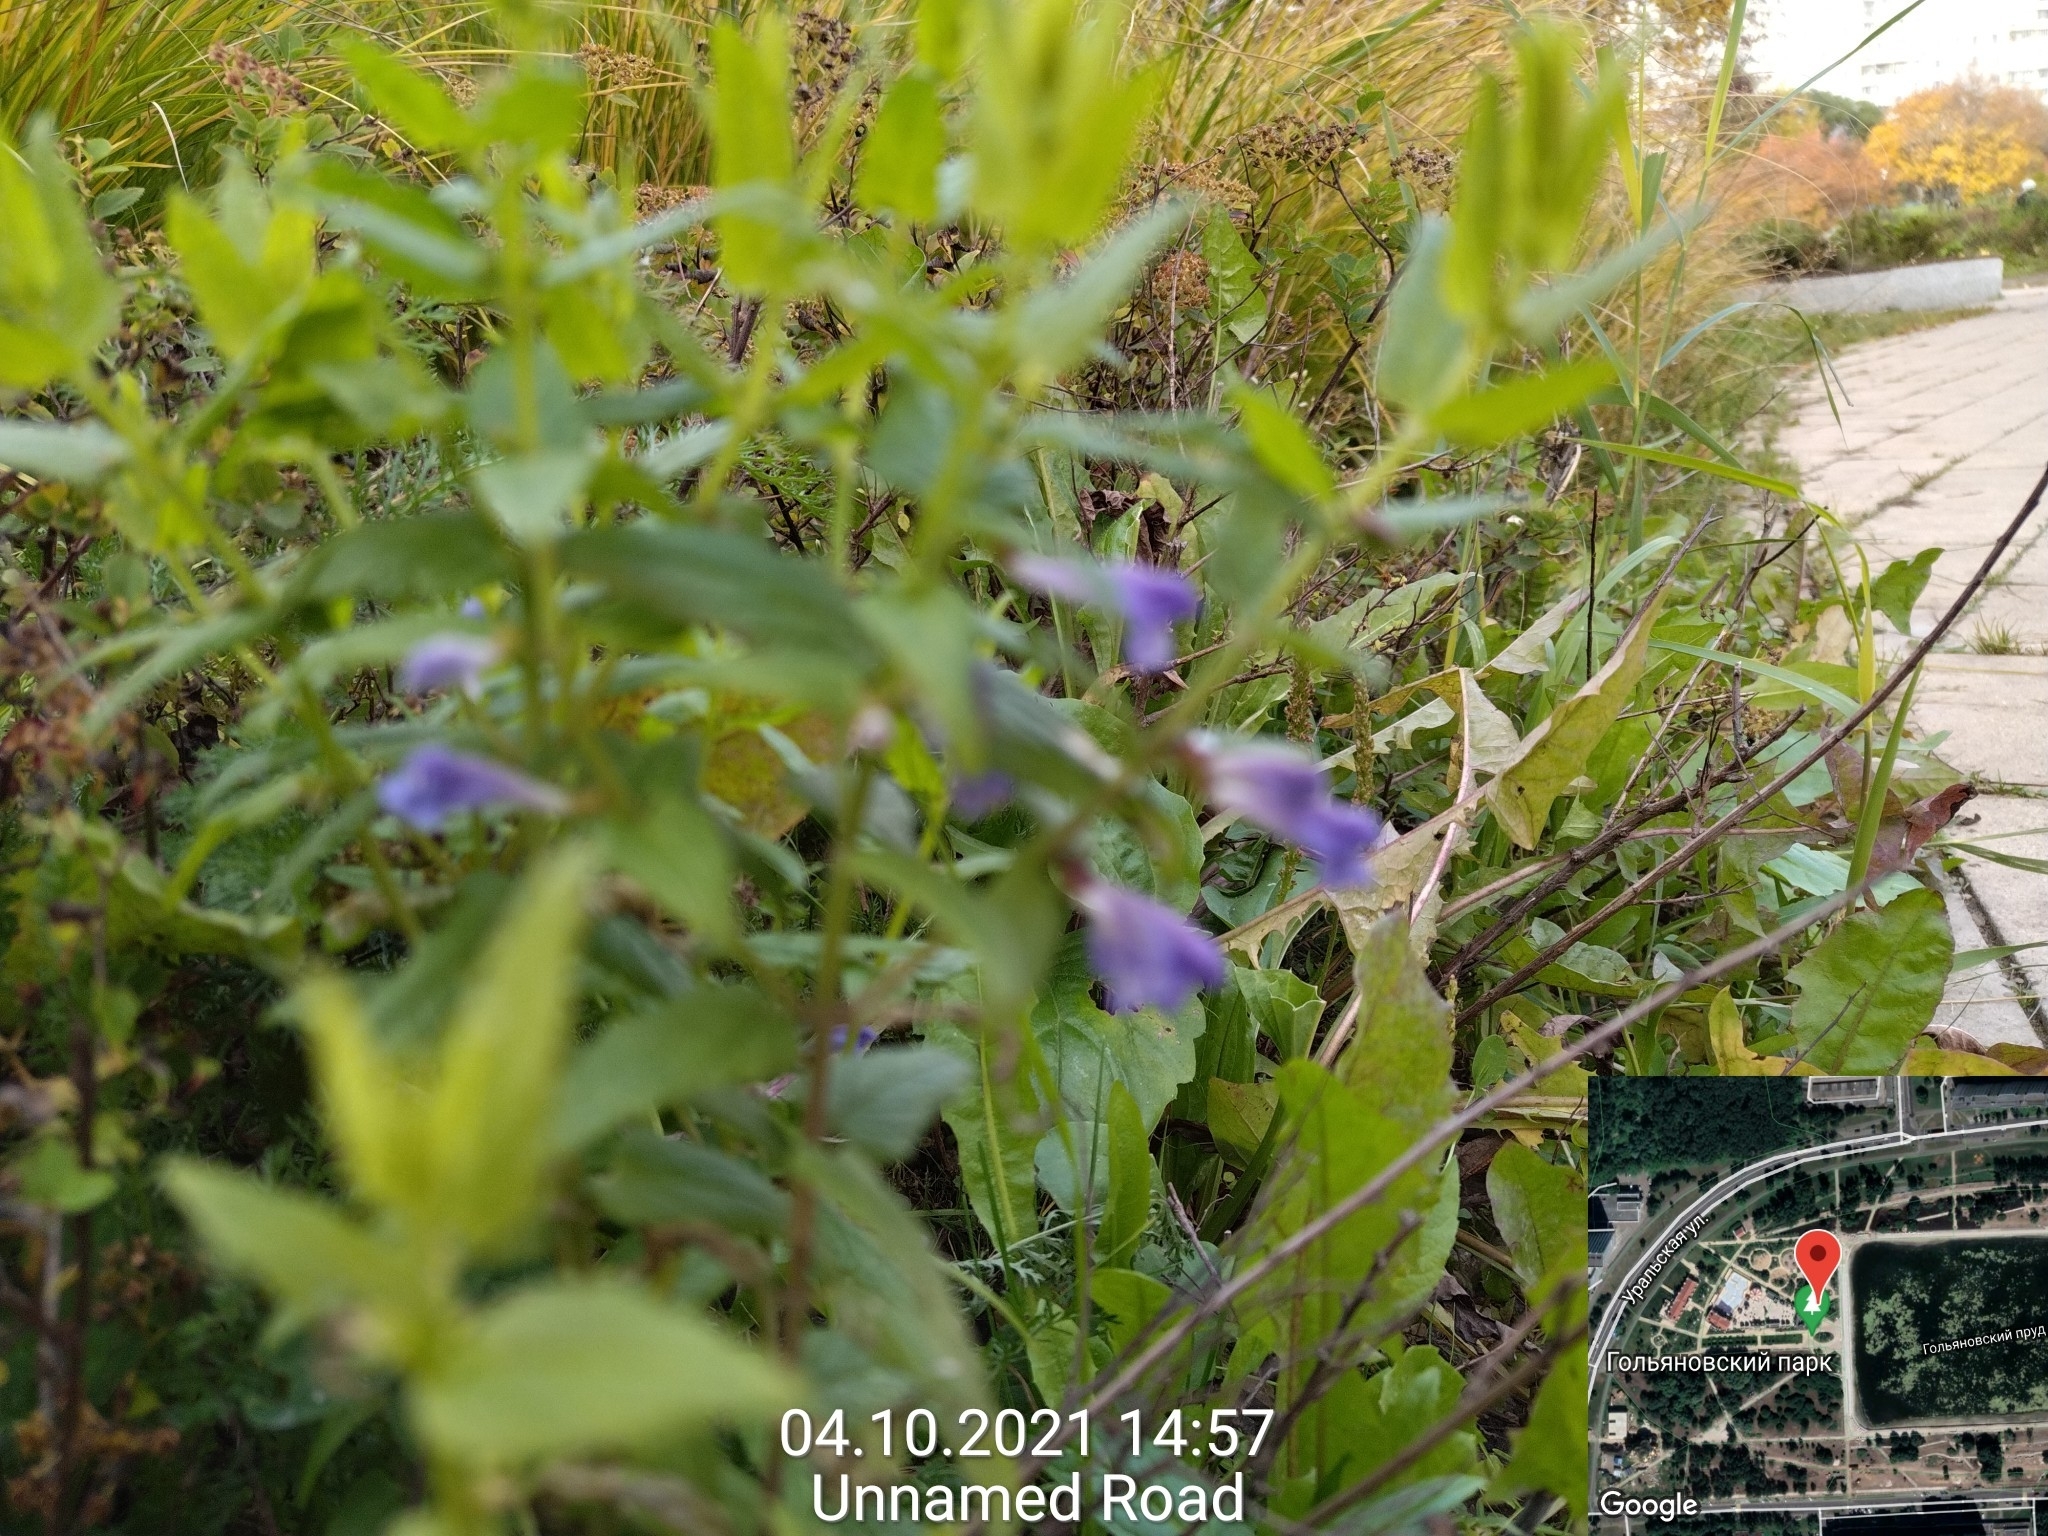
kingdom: Plantae
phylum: Tracheophyta
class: Magnoliopsida
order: Lamiales
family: Lamiaceae
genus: Scutellaria
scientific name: Scutellaria galericulata
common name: Skullcap
